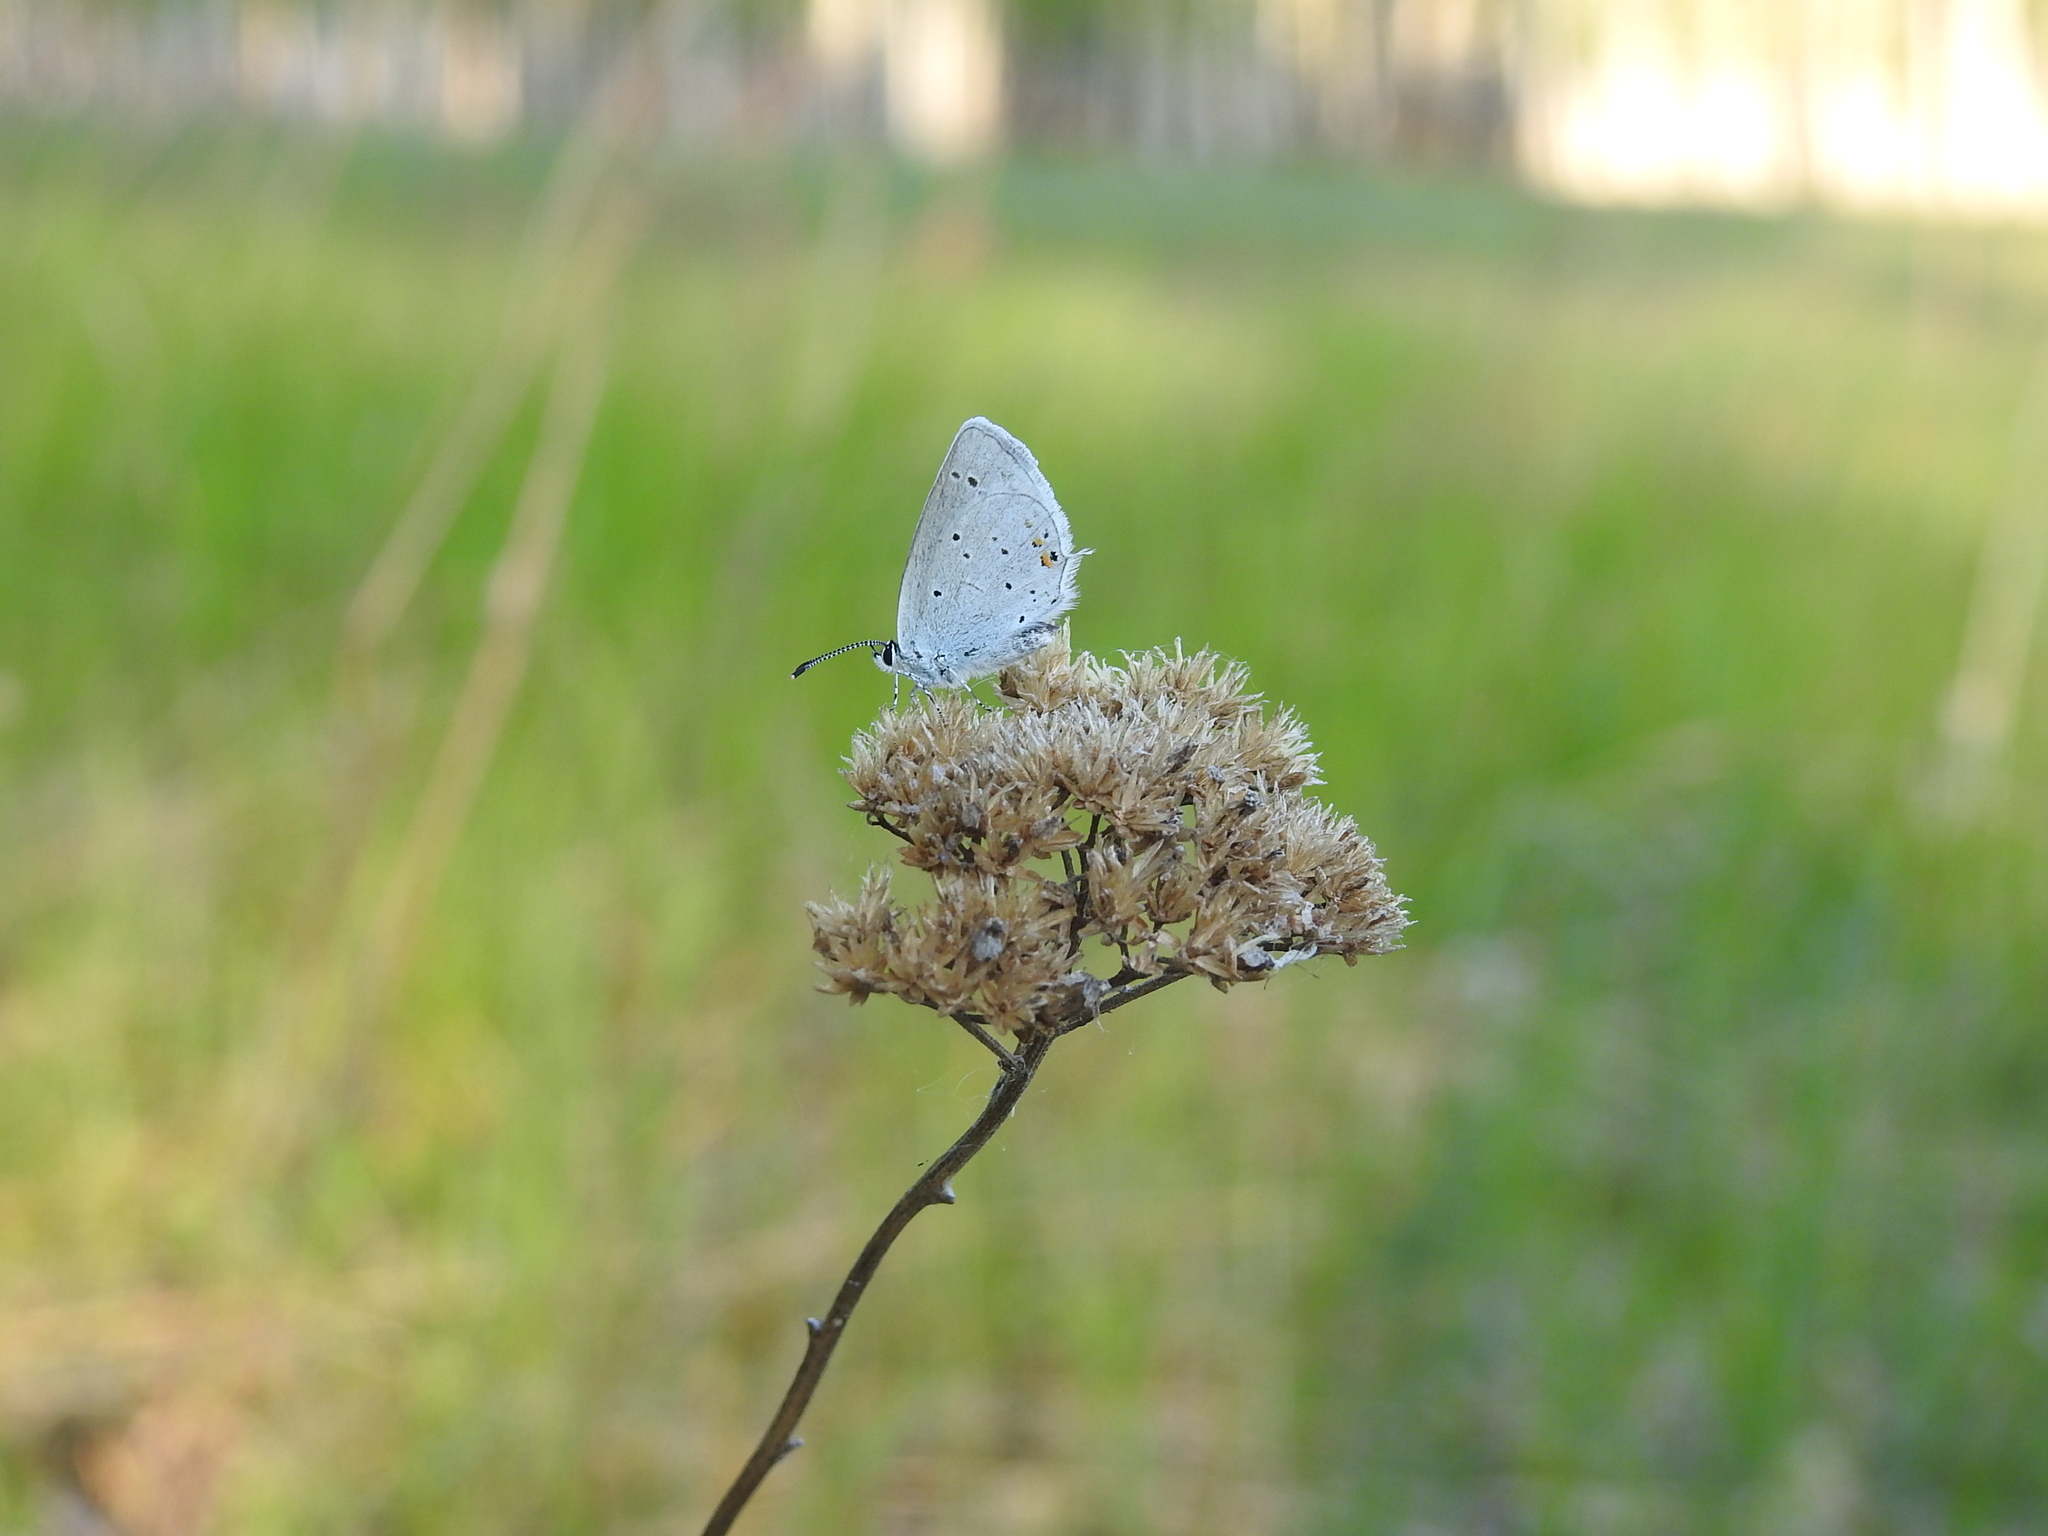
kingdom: Animalia
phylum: Arthropoda
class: Insecta
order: Lepidoptera
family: Lycaenidae
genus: Elkalyce
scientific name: Elkalyce argiades
